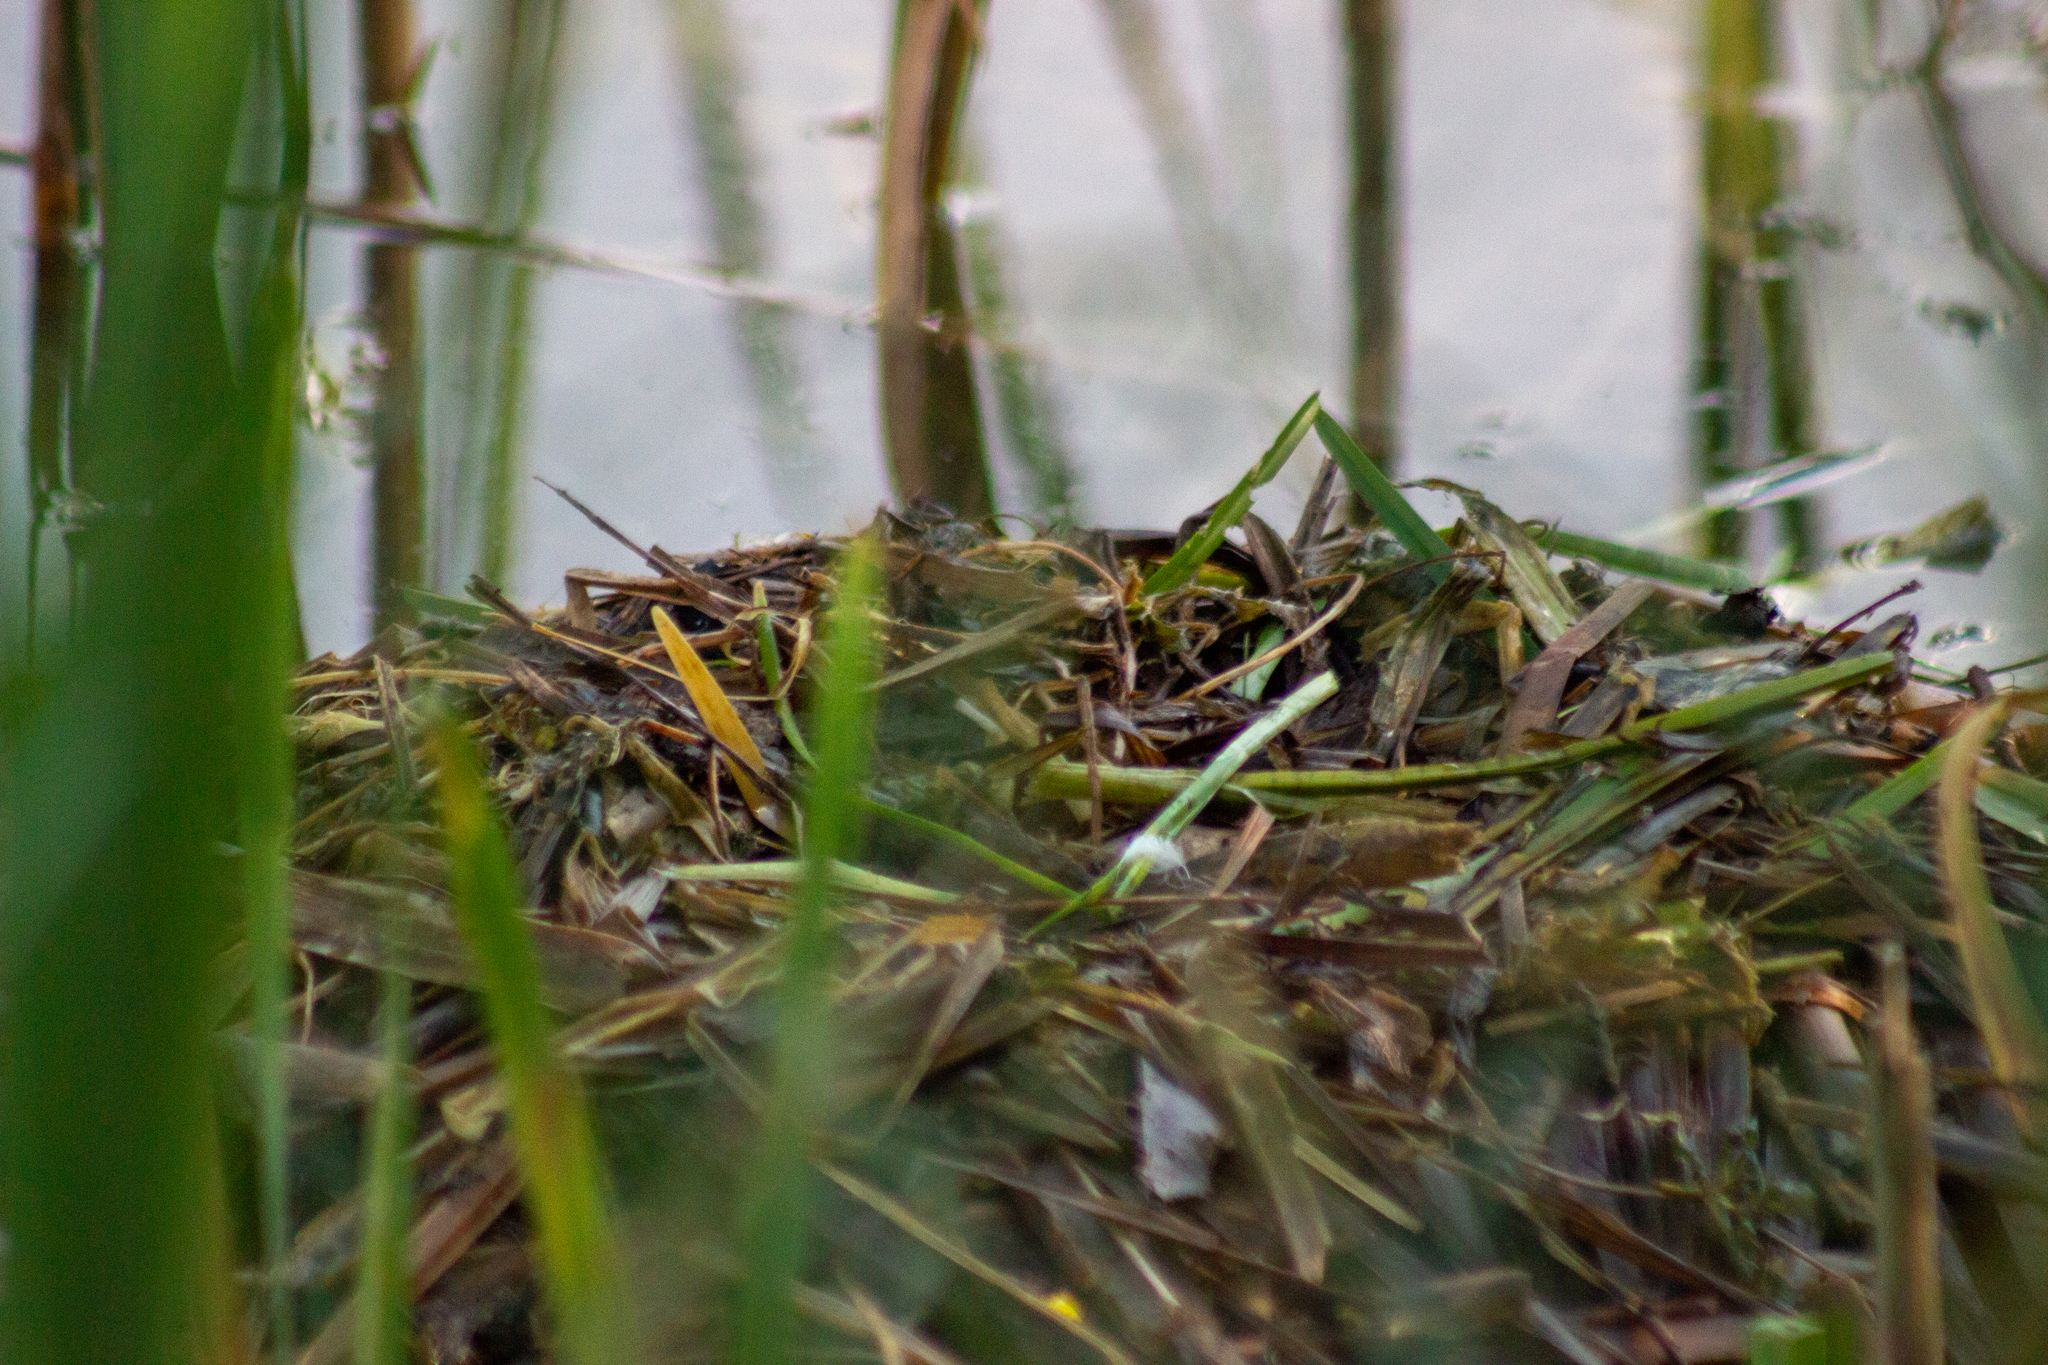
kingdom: Animalia
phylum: Chordata
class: Aves
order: Podicipediformes
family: Podicipedidae
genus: Podiceps
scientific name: Podiceps cristatus
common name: Great crested grebe
